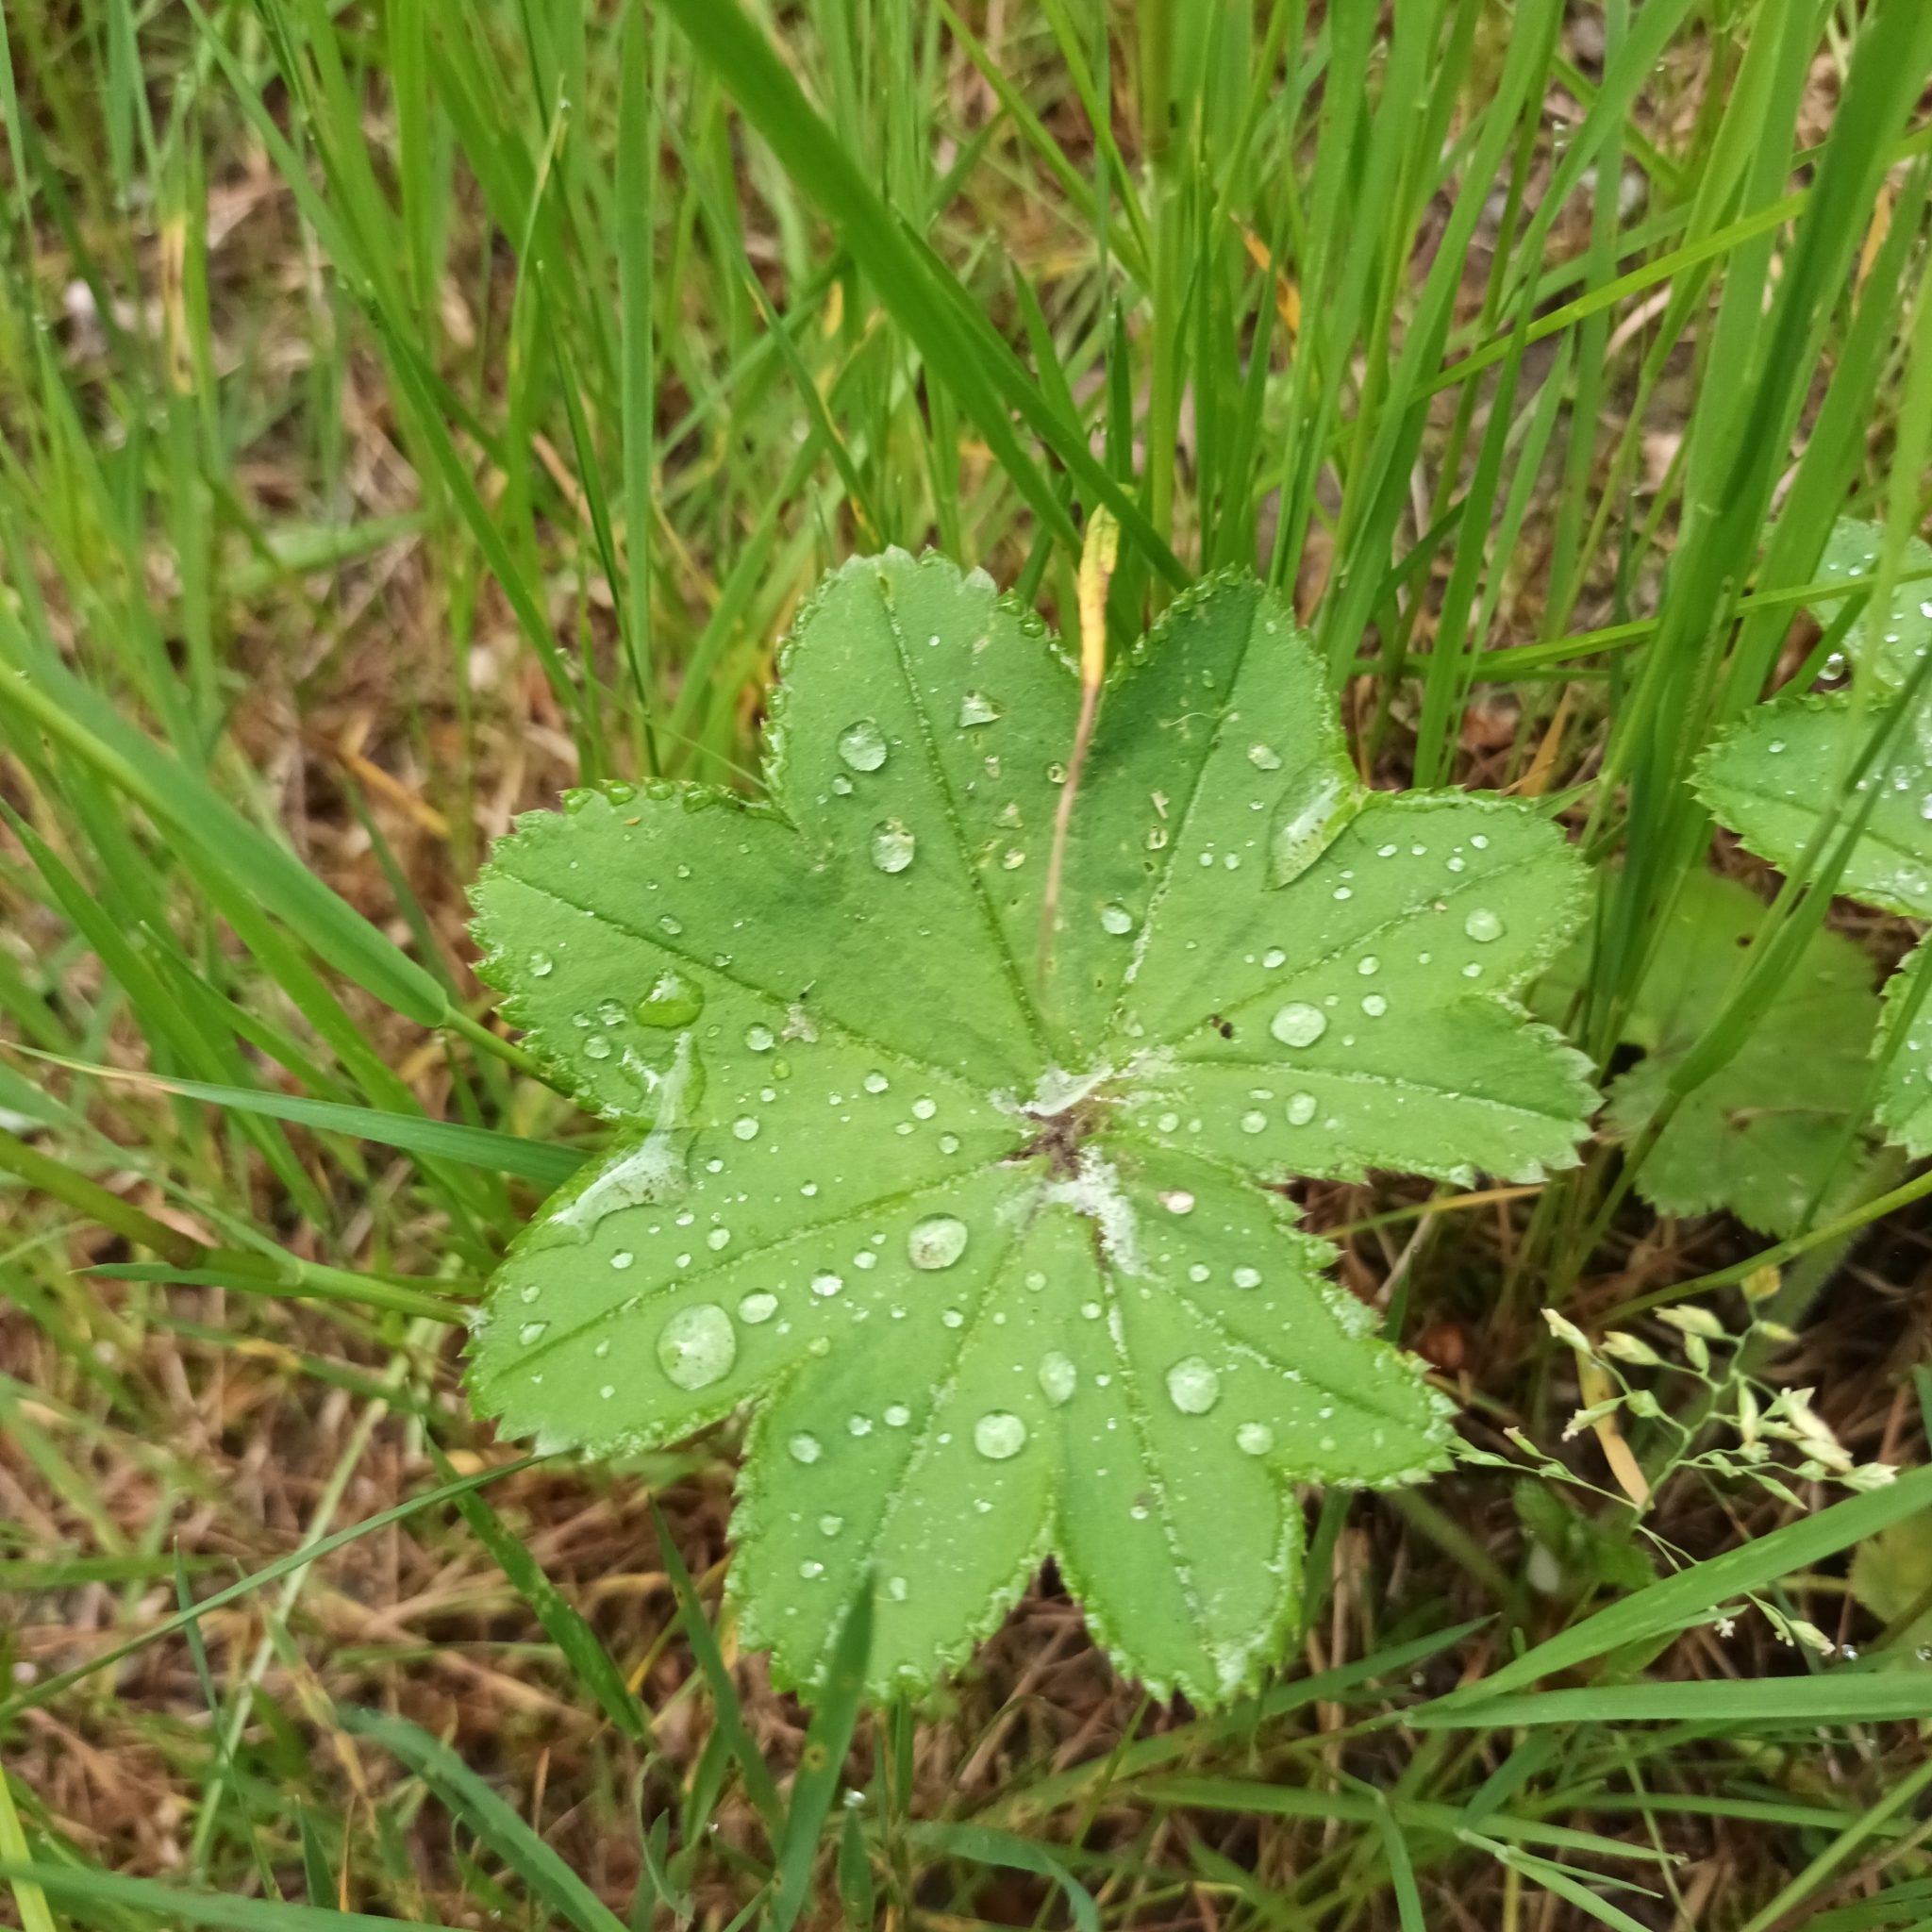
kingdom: Plantae
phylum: Tracheophyta
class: Magnoliopsida
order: Rosales
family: Rosaceae
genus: Alchemilla
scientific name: Alchemilla monticola
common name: Hairy lady's mantle
